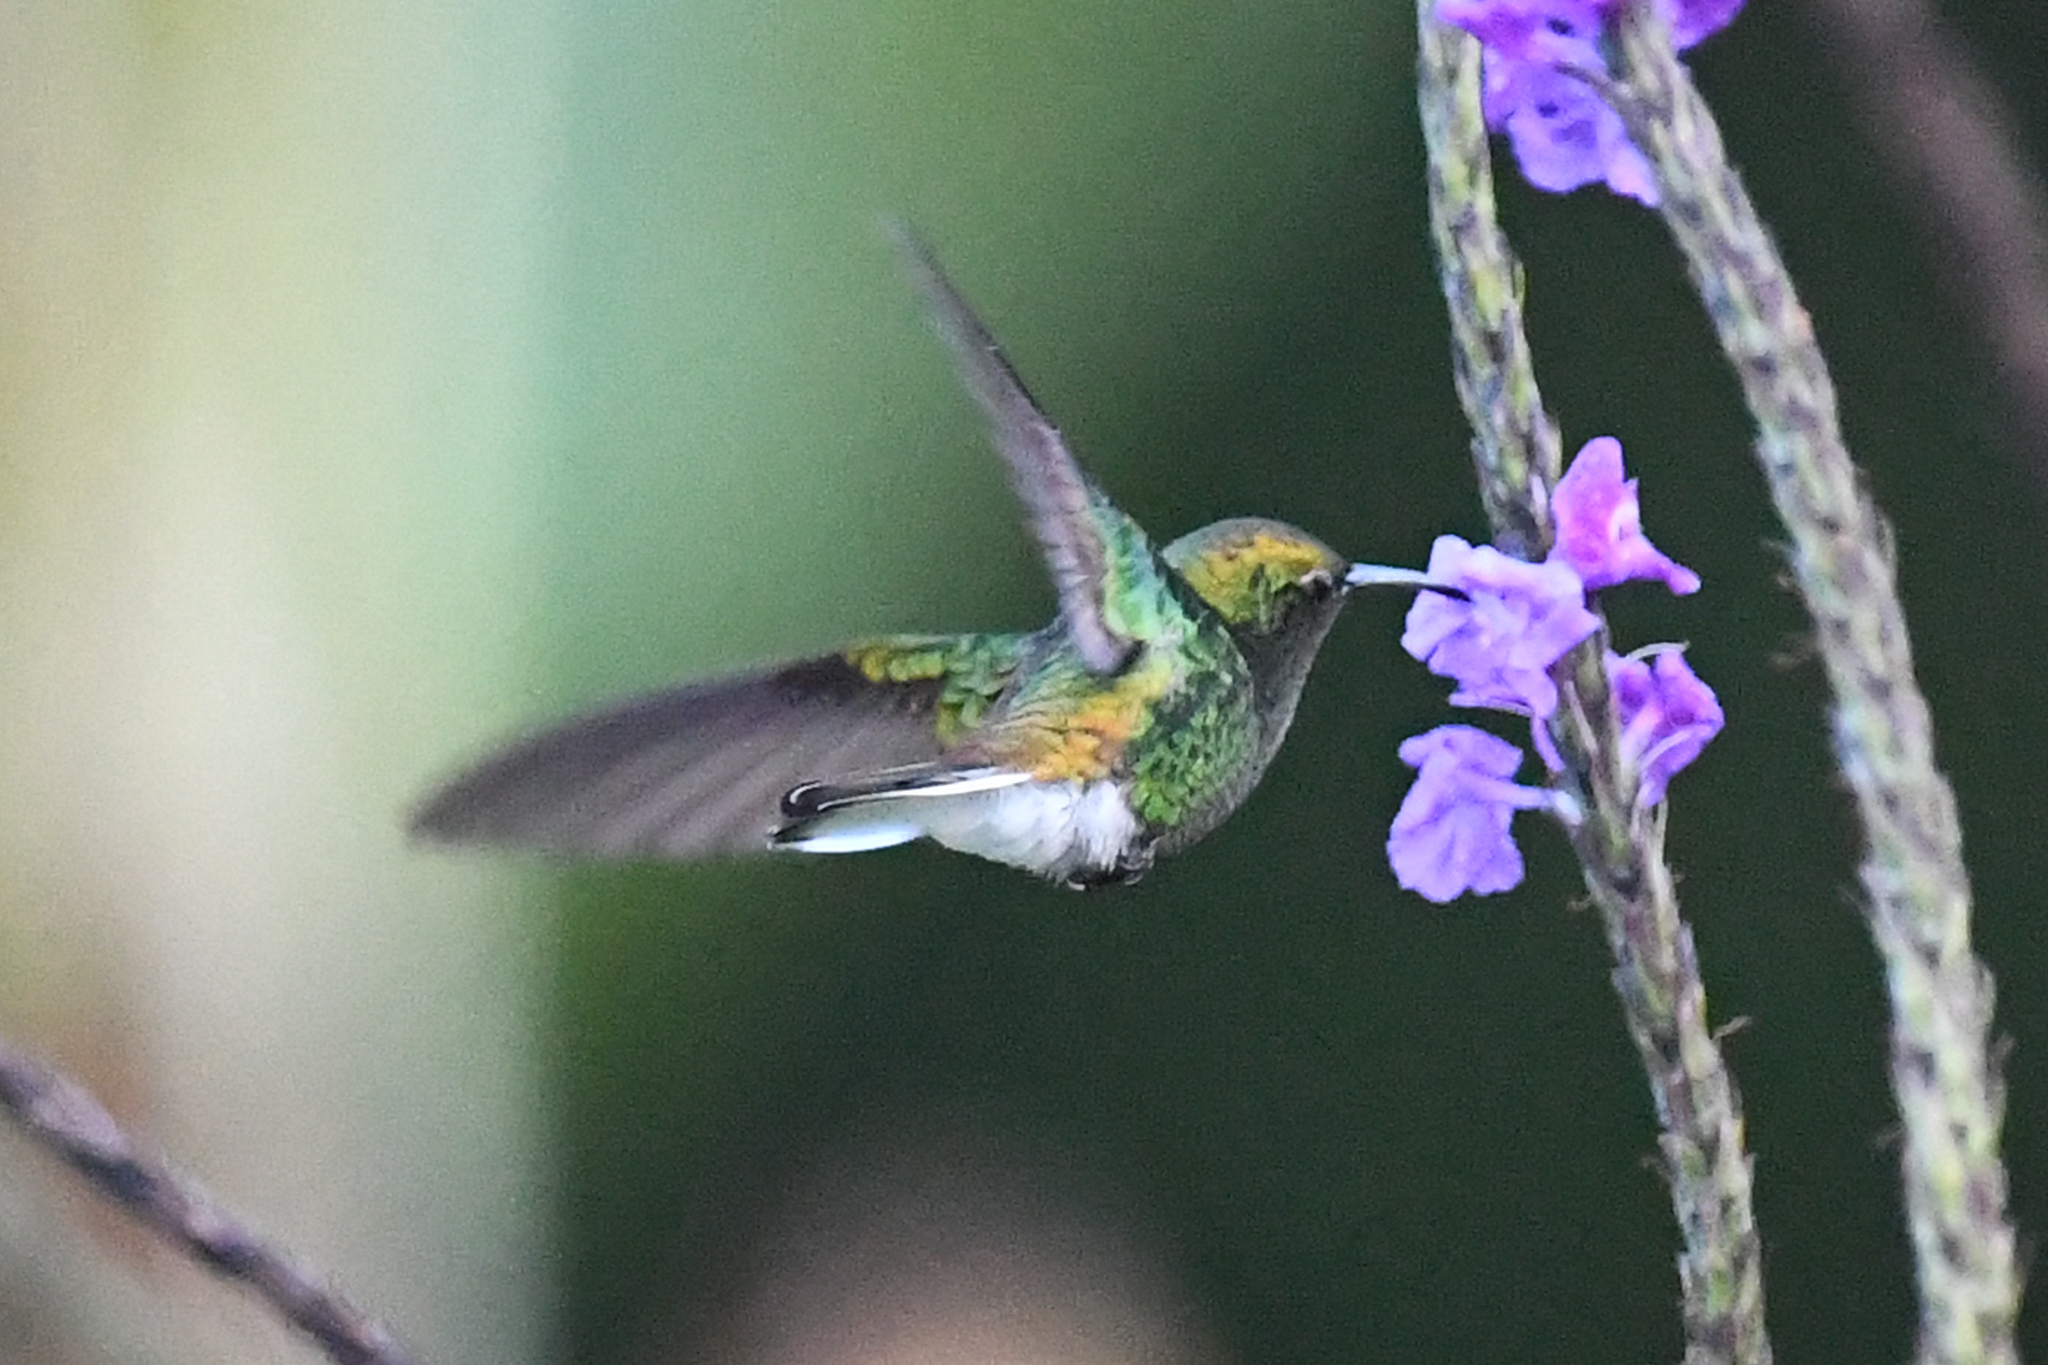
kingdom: Animalia
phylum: Chordata
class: Aves
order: Apodiformes
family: Trochilidae
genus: Microchera
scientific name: Microchera cupreiceps
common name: Coppery-headed emerald
